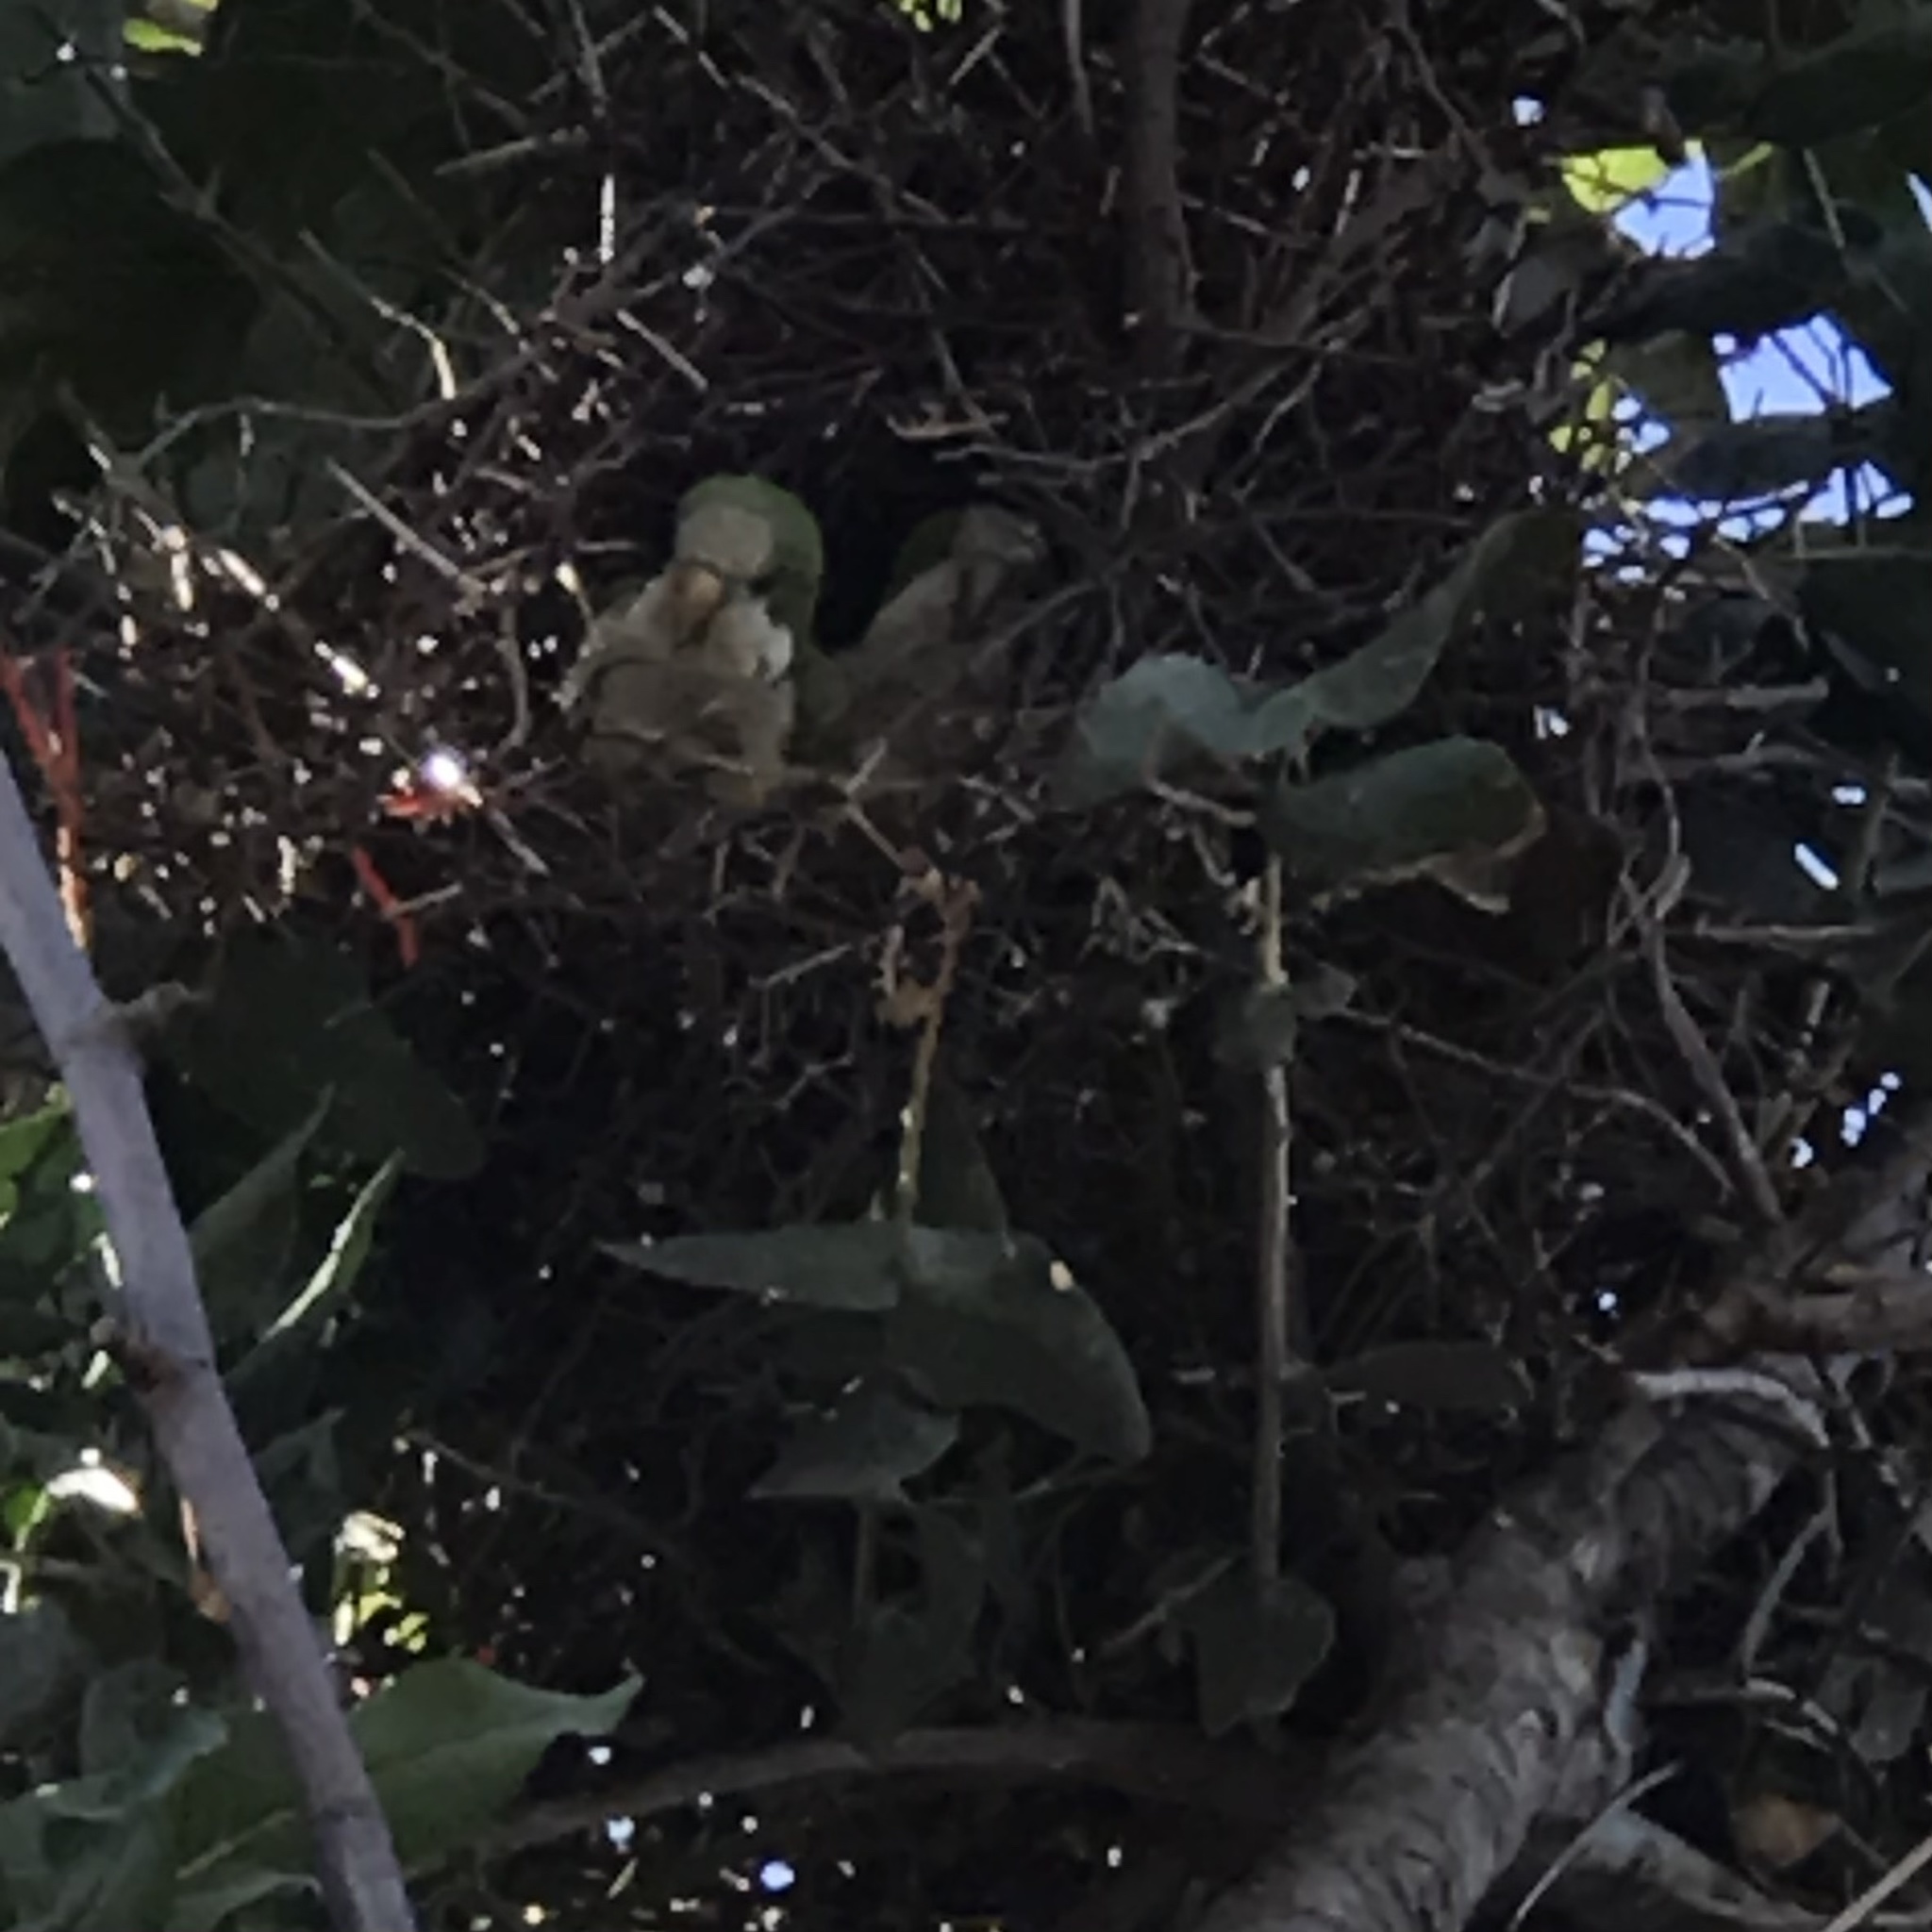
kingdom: Animalia
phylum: Chordata
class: Aves
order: Psittaciformes
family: Psittacidae
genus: Myiopsitta
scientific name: Myiopsitta monachus
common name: Monk parakeet
